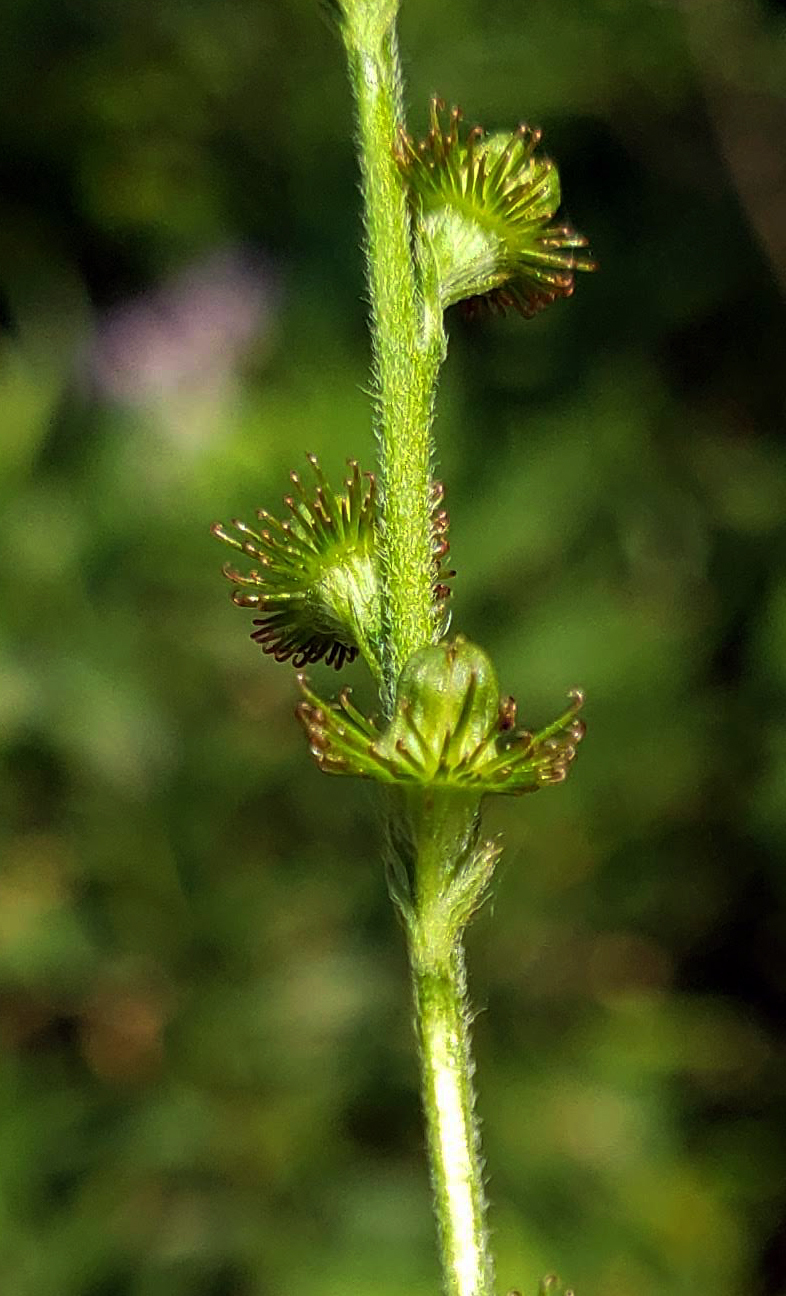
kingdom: Plantae
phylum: Tracheophyta
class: Magnoliopsida
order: Rosales
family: Rosaceae
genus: Agrimonia
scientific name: Agrimonia pubescens
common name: Downy agrimony
